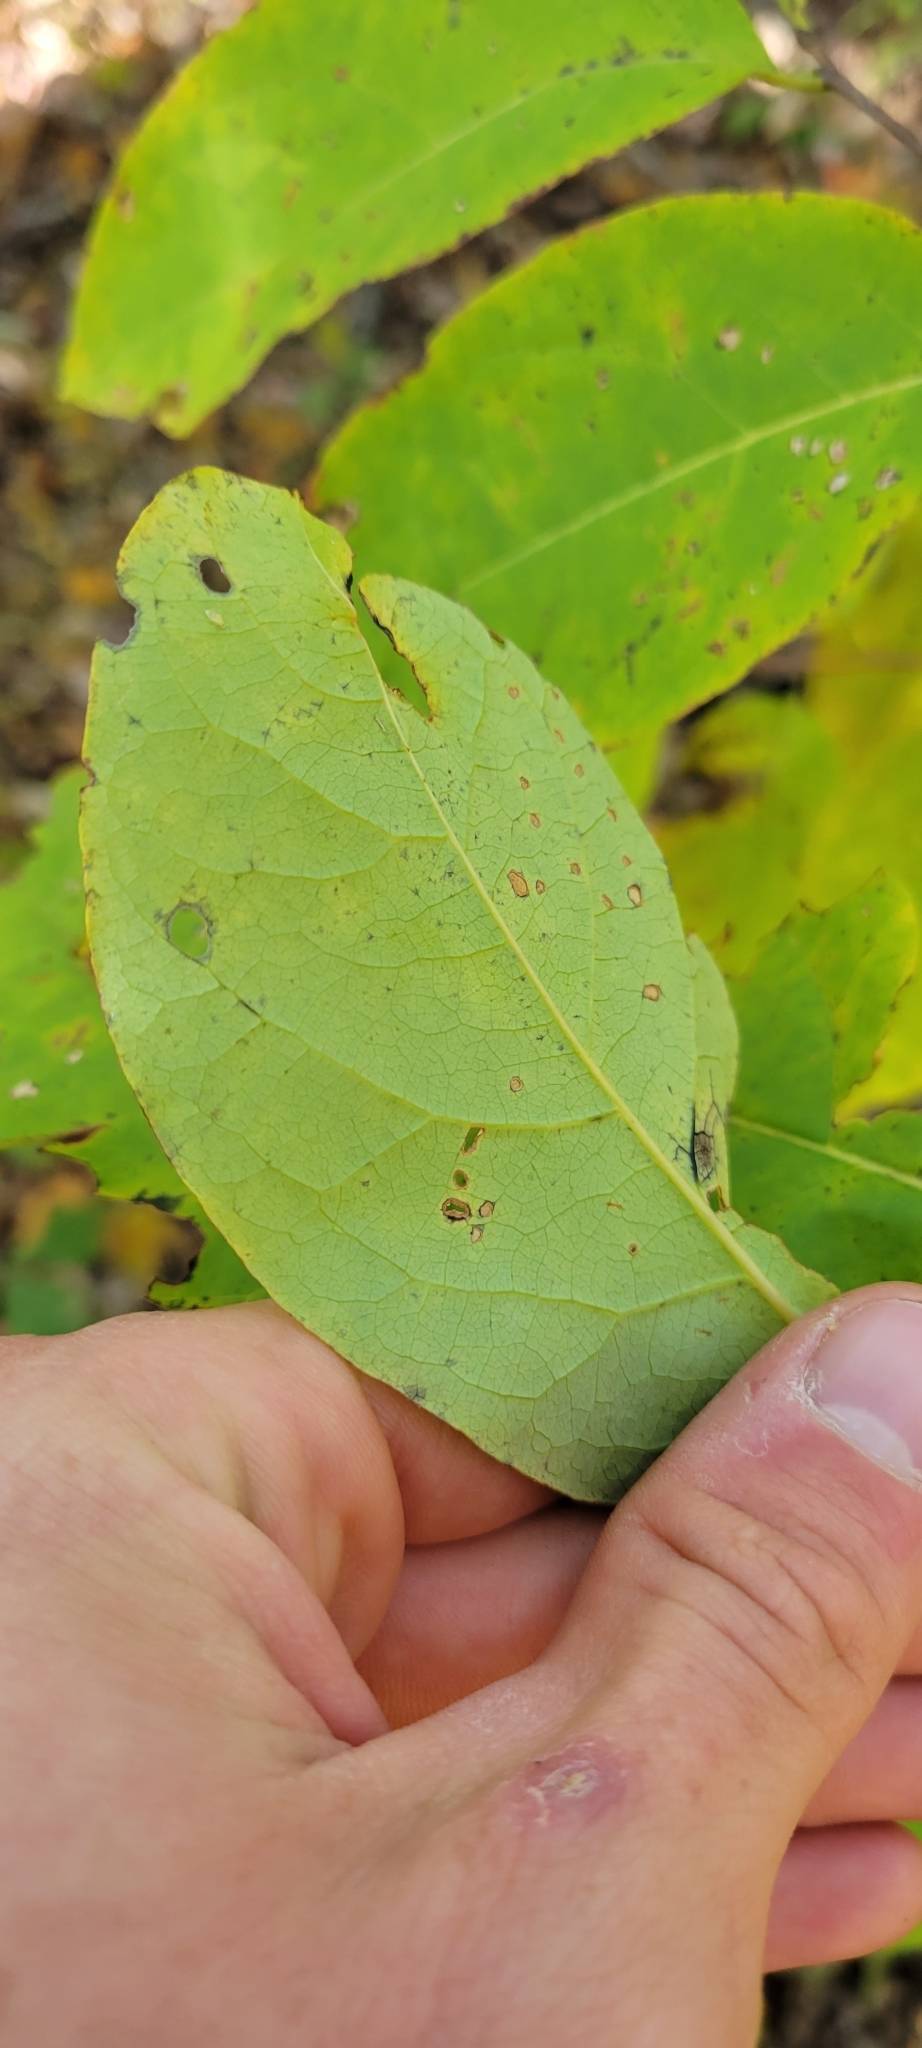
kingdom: Plantae
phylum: Tracheophyta
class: Magnoliopsida
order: Ericales
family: Ebenaceae
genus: Diospyros
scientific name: Diospyros virginiana
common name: Persimmon
